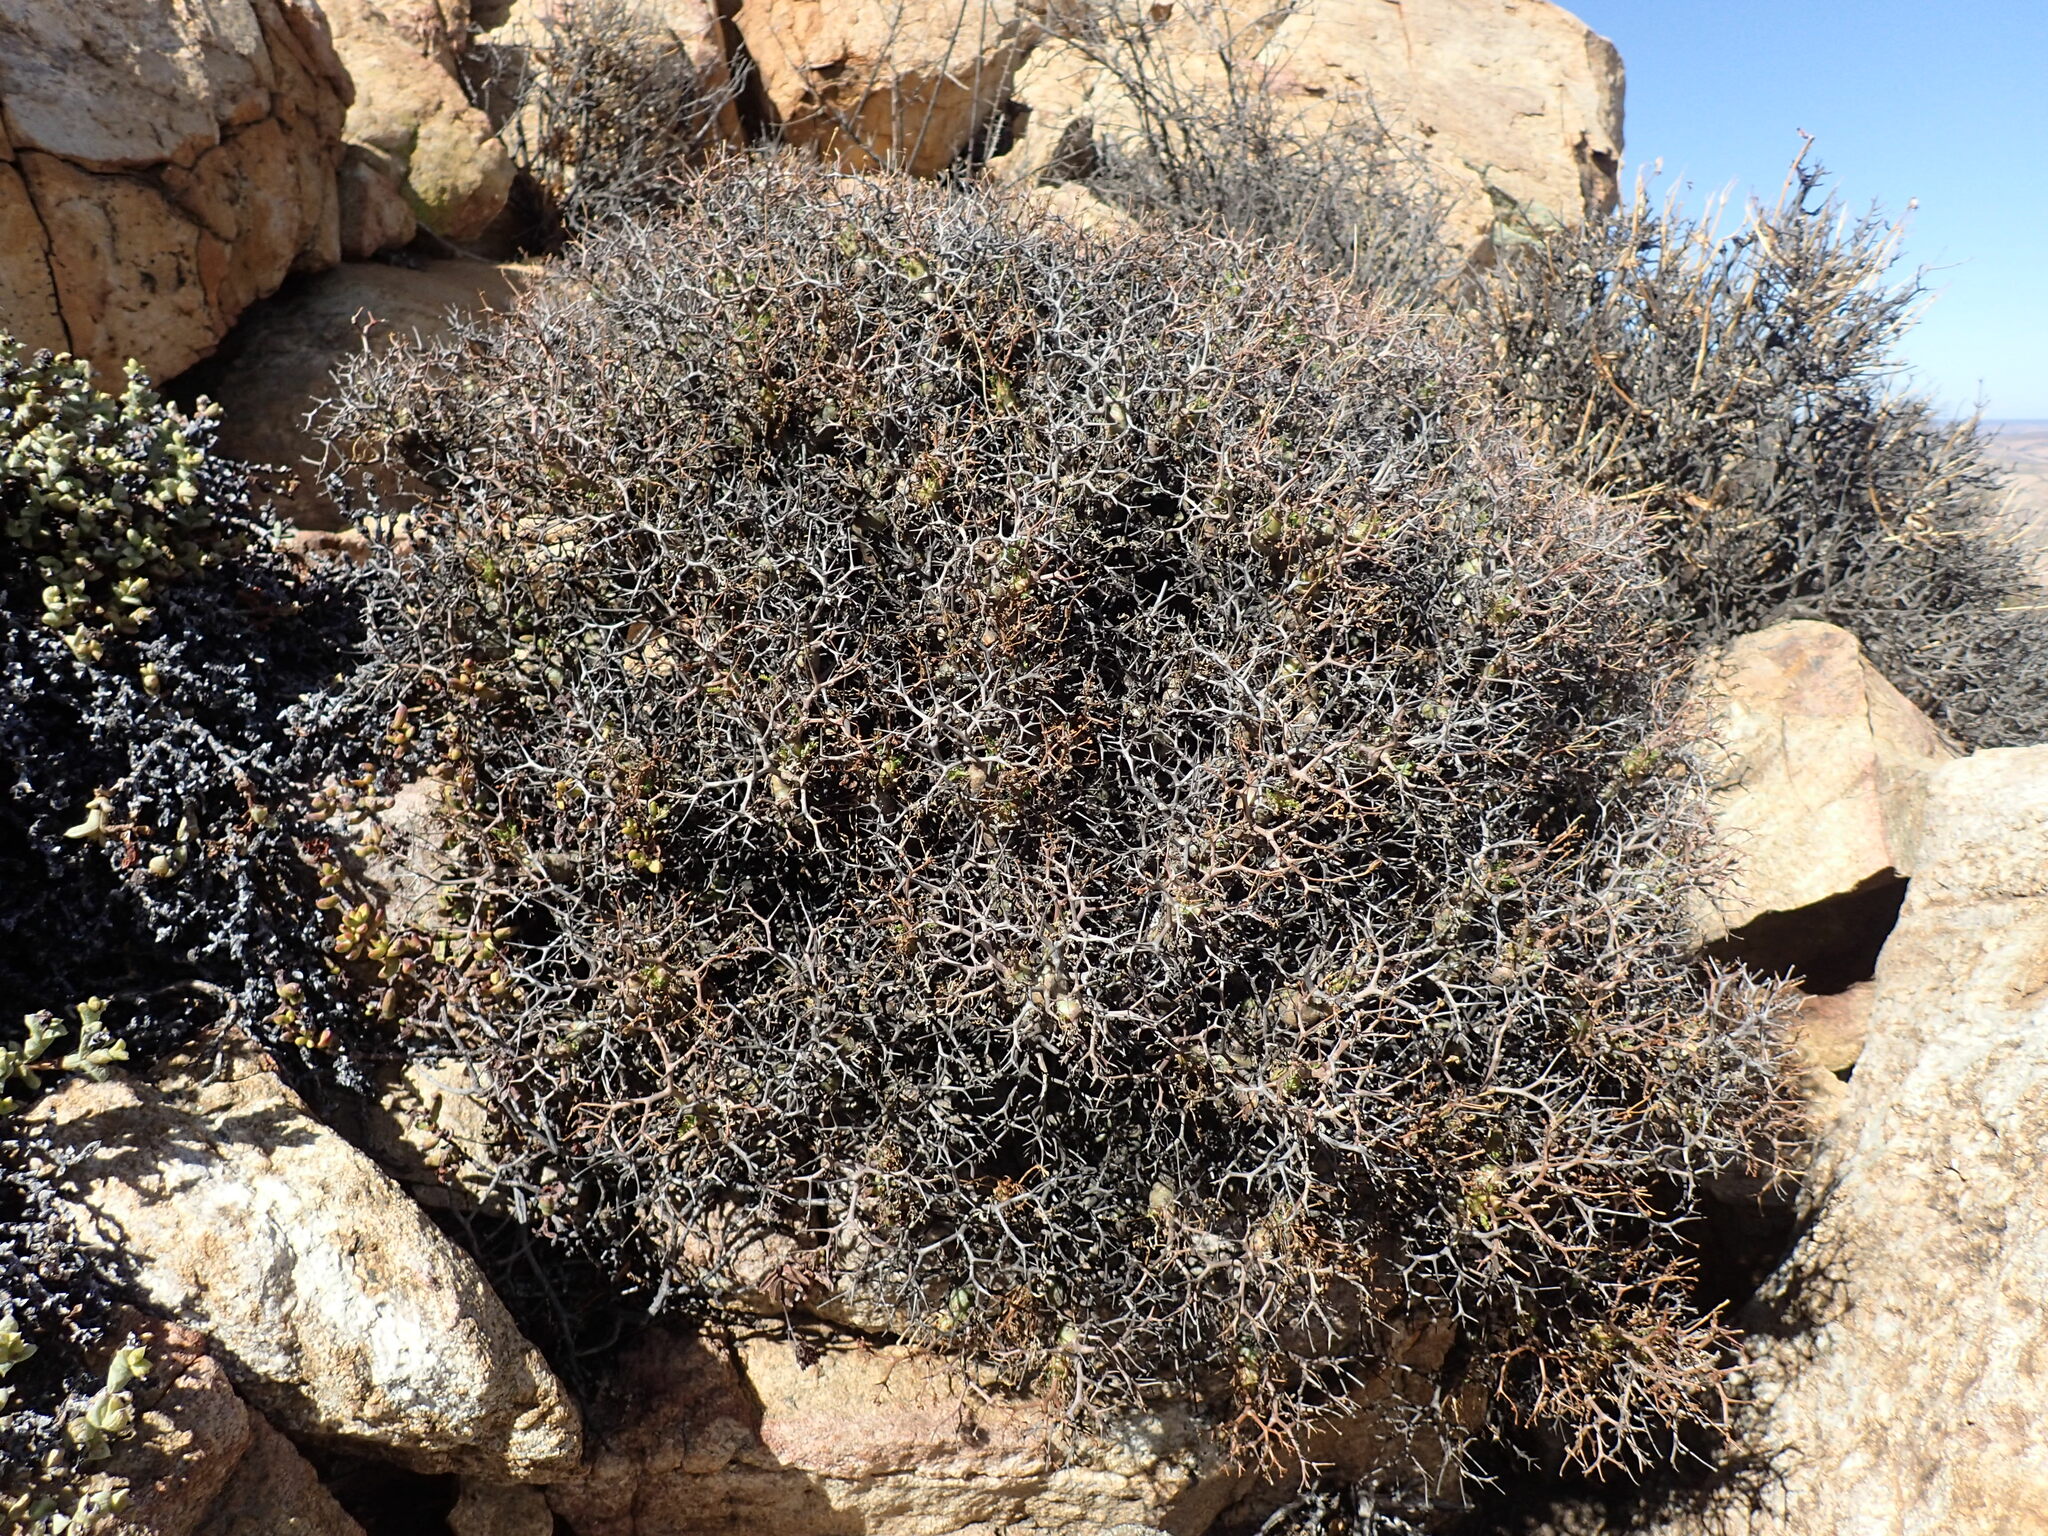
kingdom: Plantae
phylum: Tracheophyta
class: Magnoliopsida
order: Geraniales
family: Geraniaceae
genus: Pelargonium
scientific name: Pelargonium crithmifolium
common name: Samphire-leaf pelargonium
